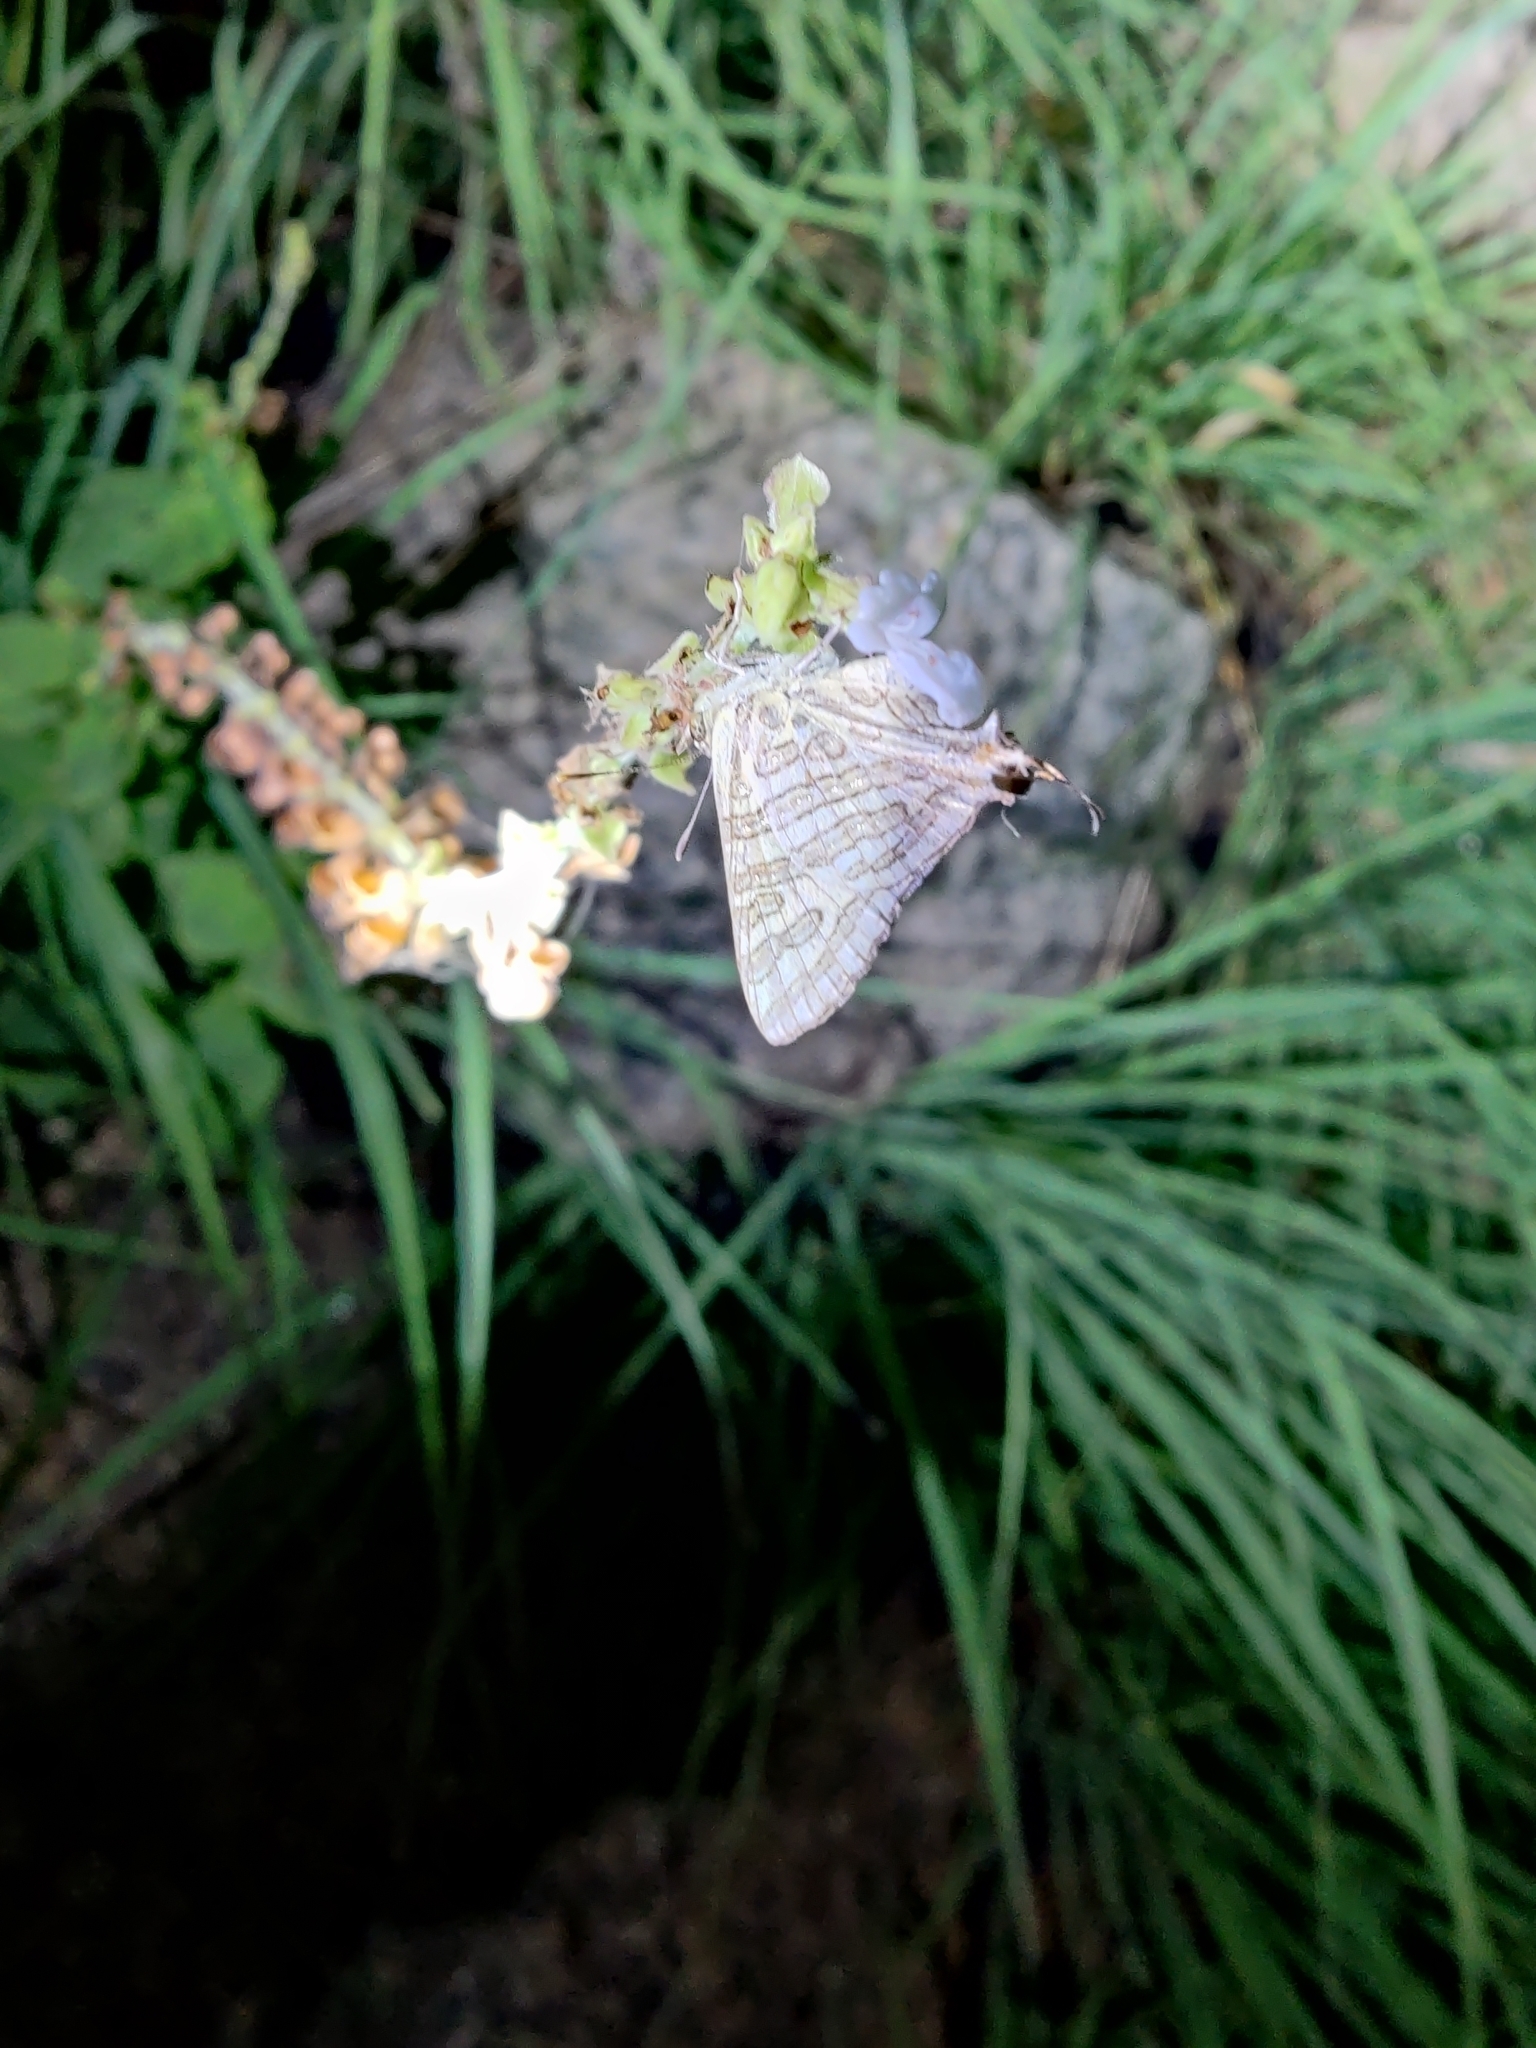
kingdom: Animalia
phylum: Arthropoda
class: Insecta
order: Lepidoptera
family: Lycaenidae
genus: Cigaritis
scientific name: Cigaritis
